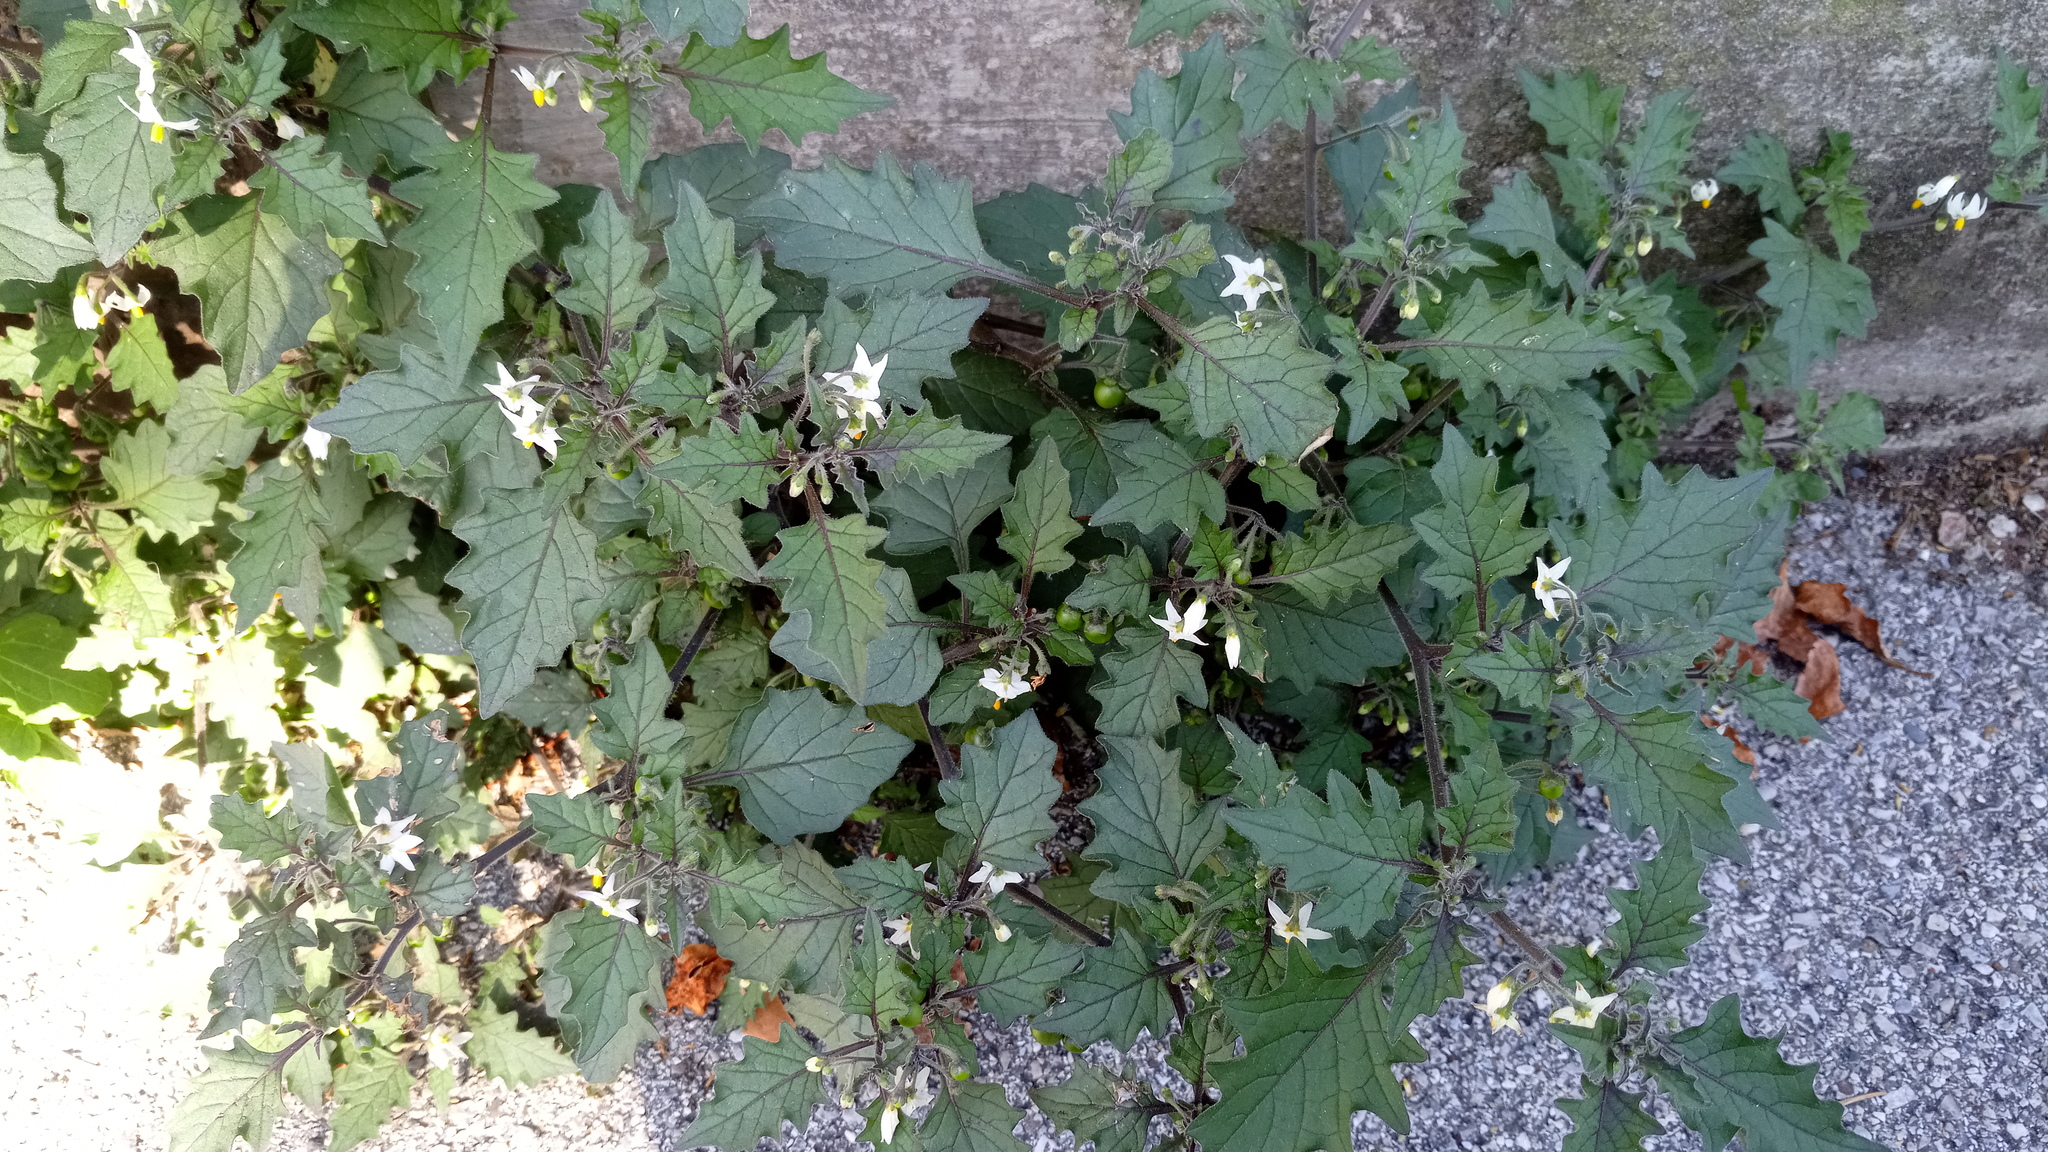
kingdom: Plantae
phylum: Tracheophyta
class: Magnoliopsida
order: Solanales
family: Solanaceae
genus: Solanum
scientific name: Solanum nigrum
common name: Black nightshade
